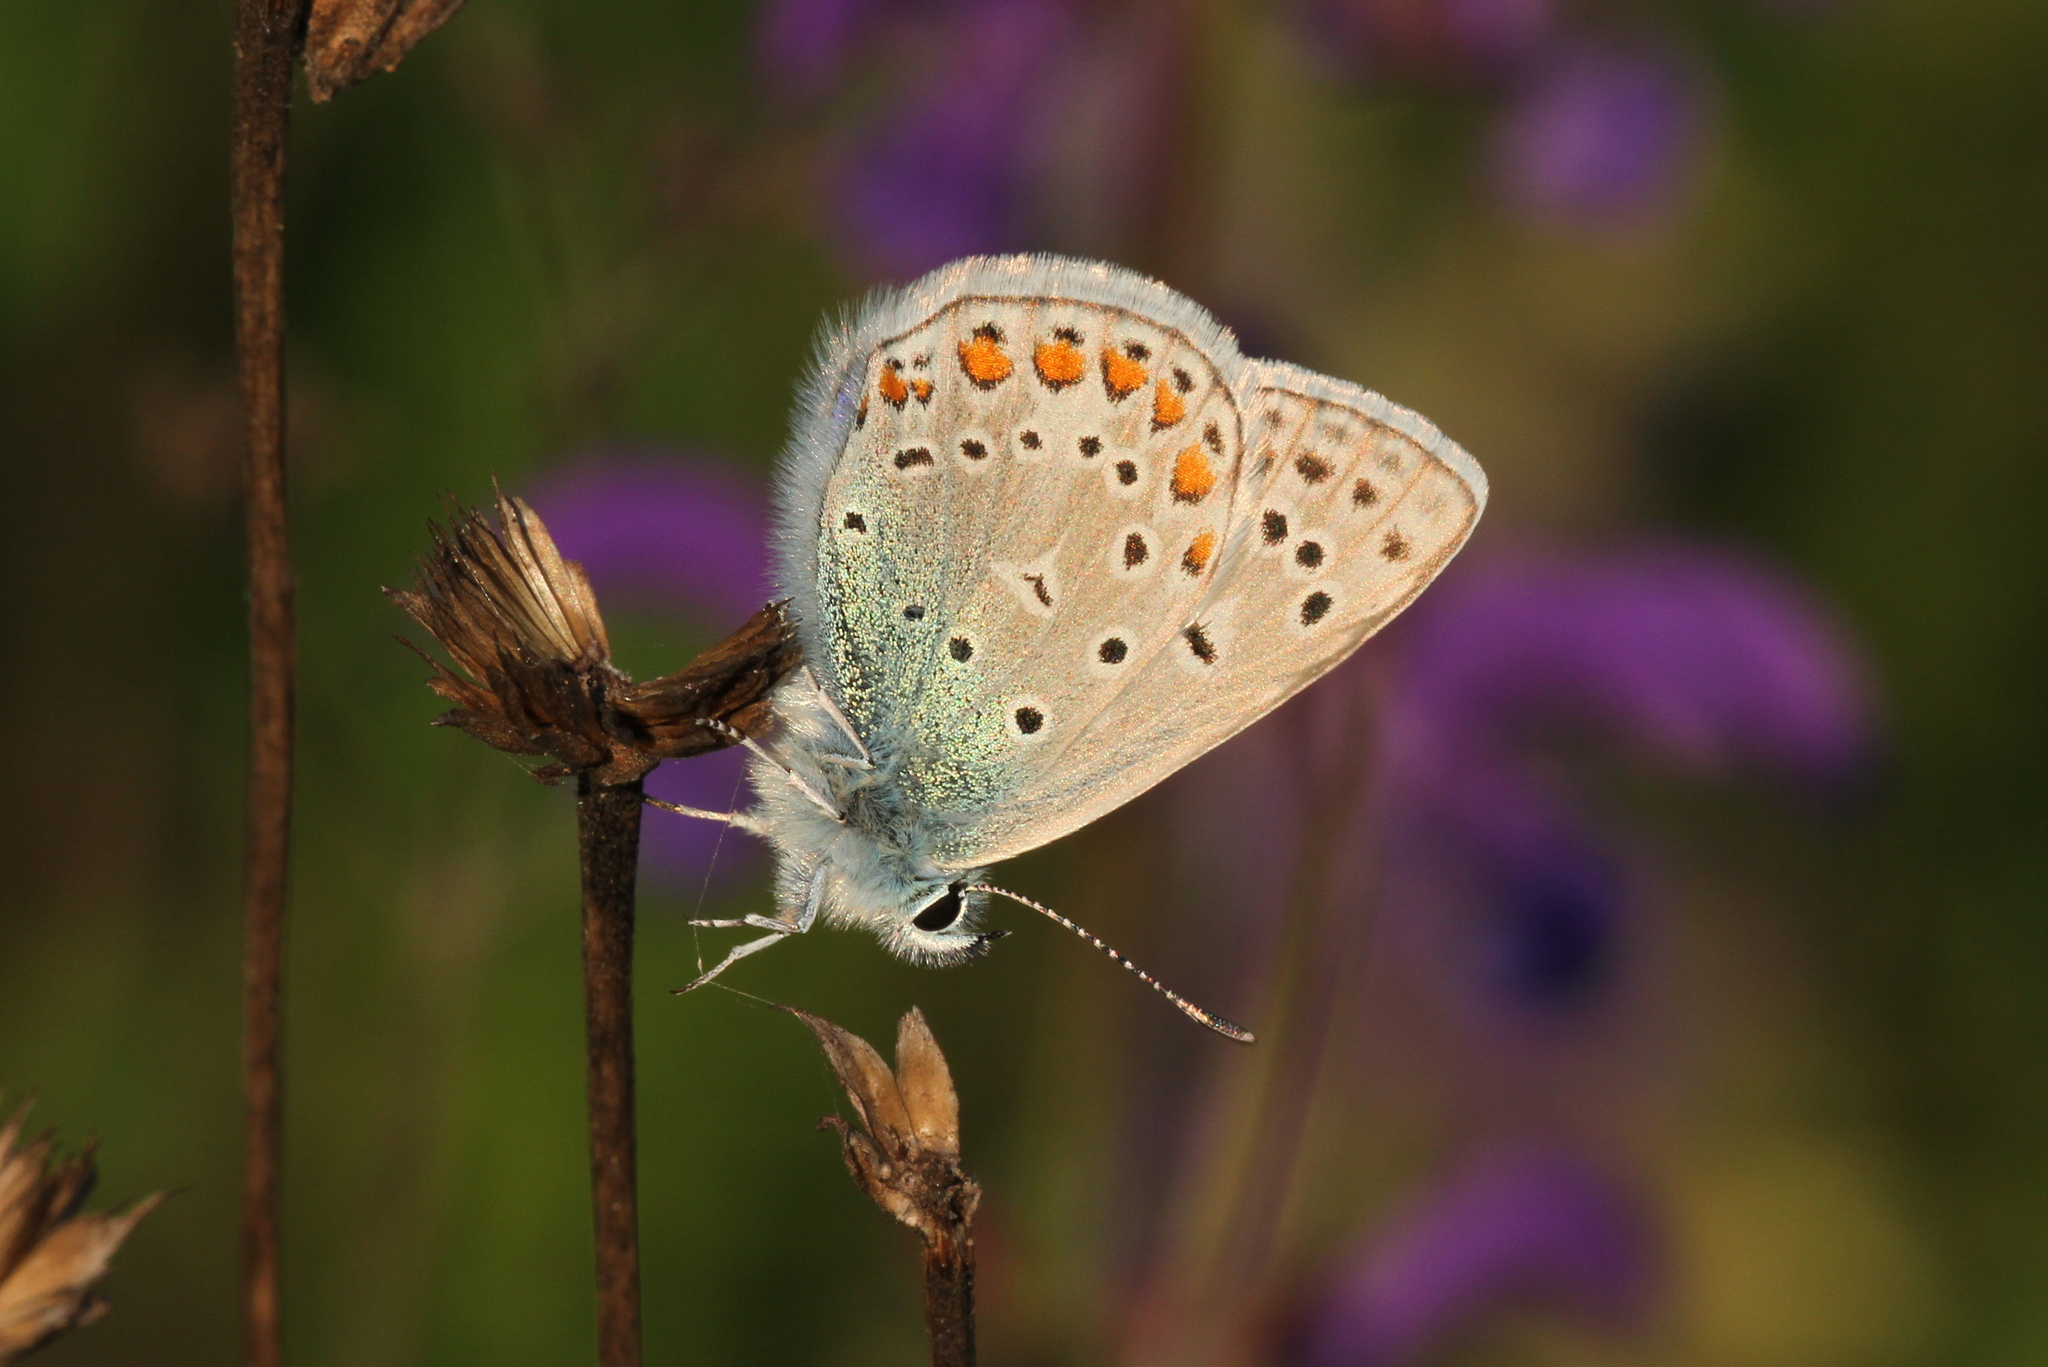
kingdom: Animalia
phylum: Arthropoda
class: Insecta
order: Lepidoptera
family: Lycaenidae
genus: Polyommatus
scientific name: Polyommatus icarus
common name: Common blue
